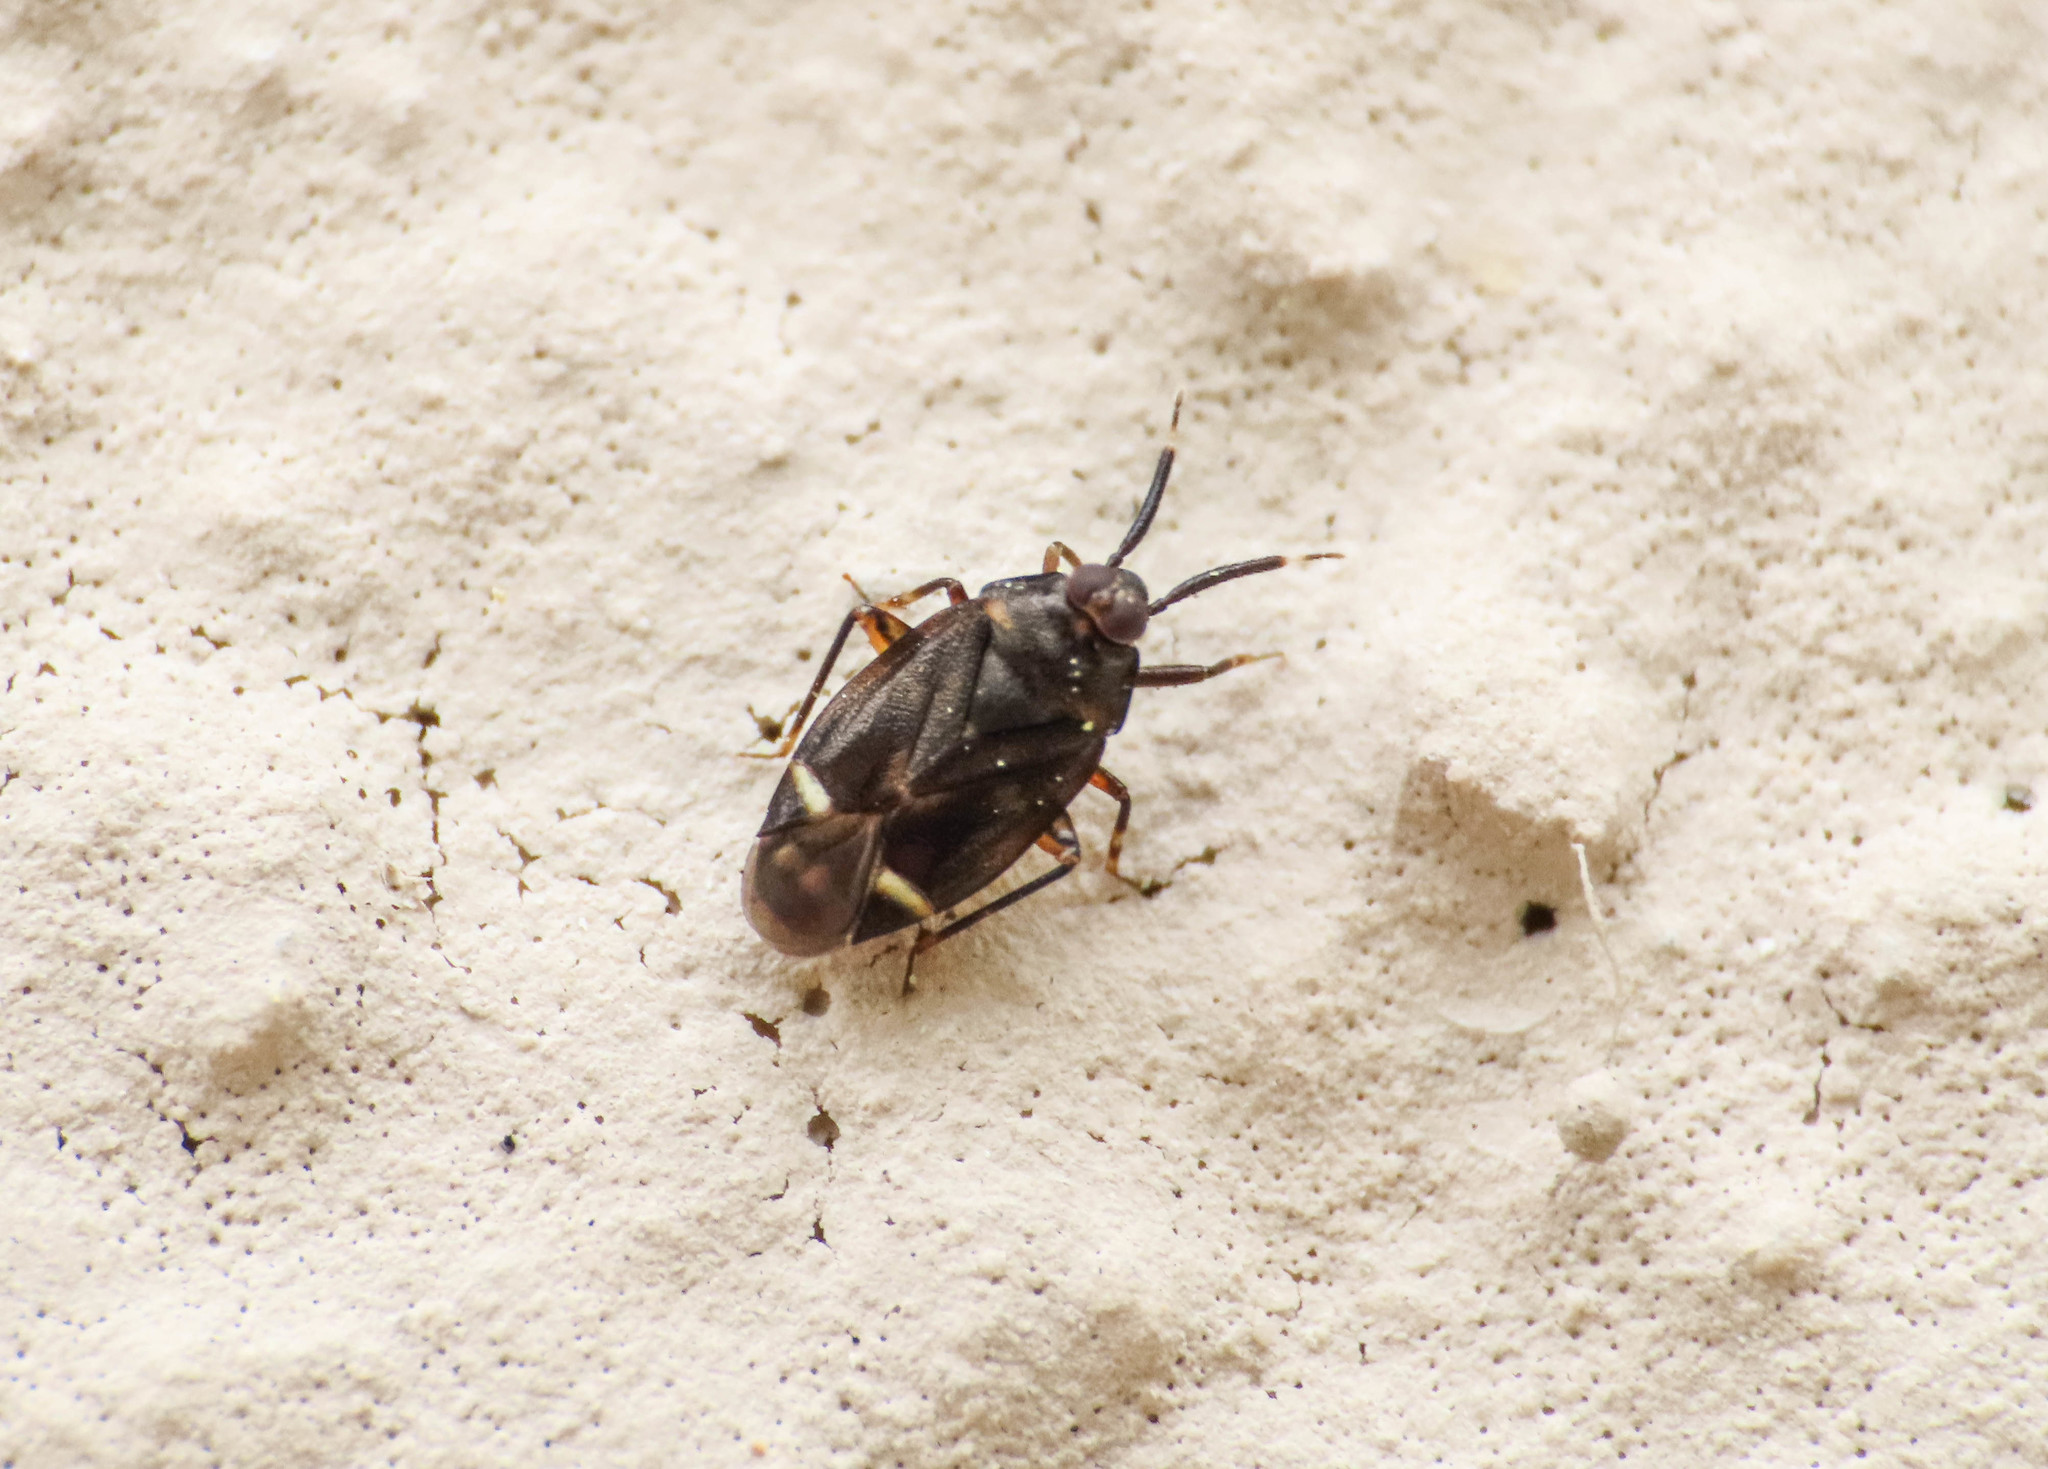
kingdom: Animalia
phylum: Arthropoda
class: Insecta
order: Hemiptera
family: Miridae
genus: Myiomma
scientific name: Myiomma fieberi
